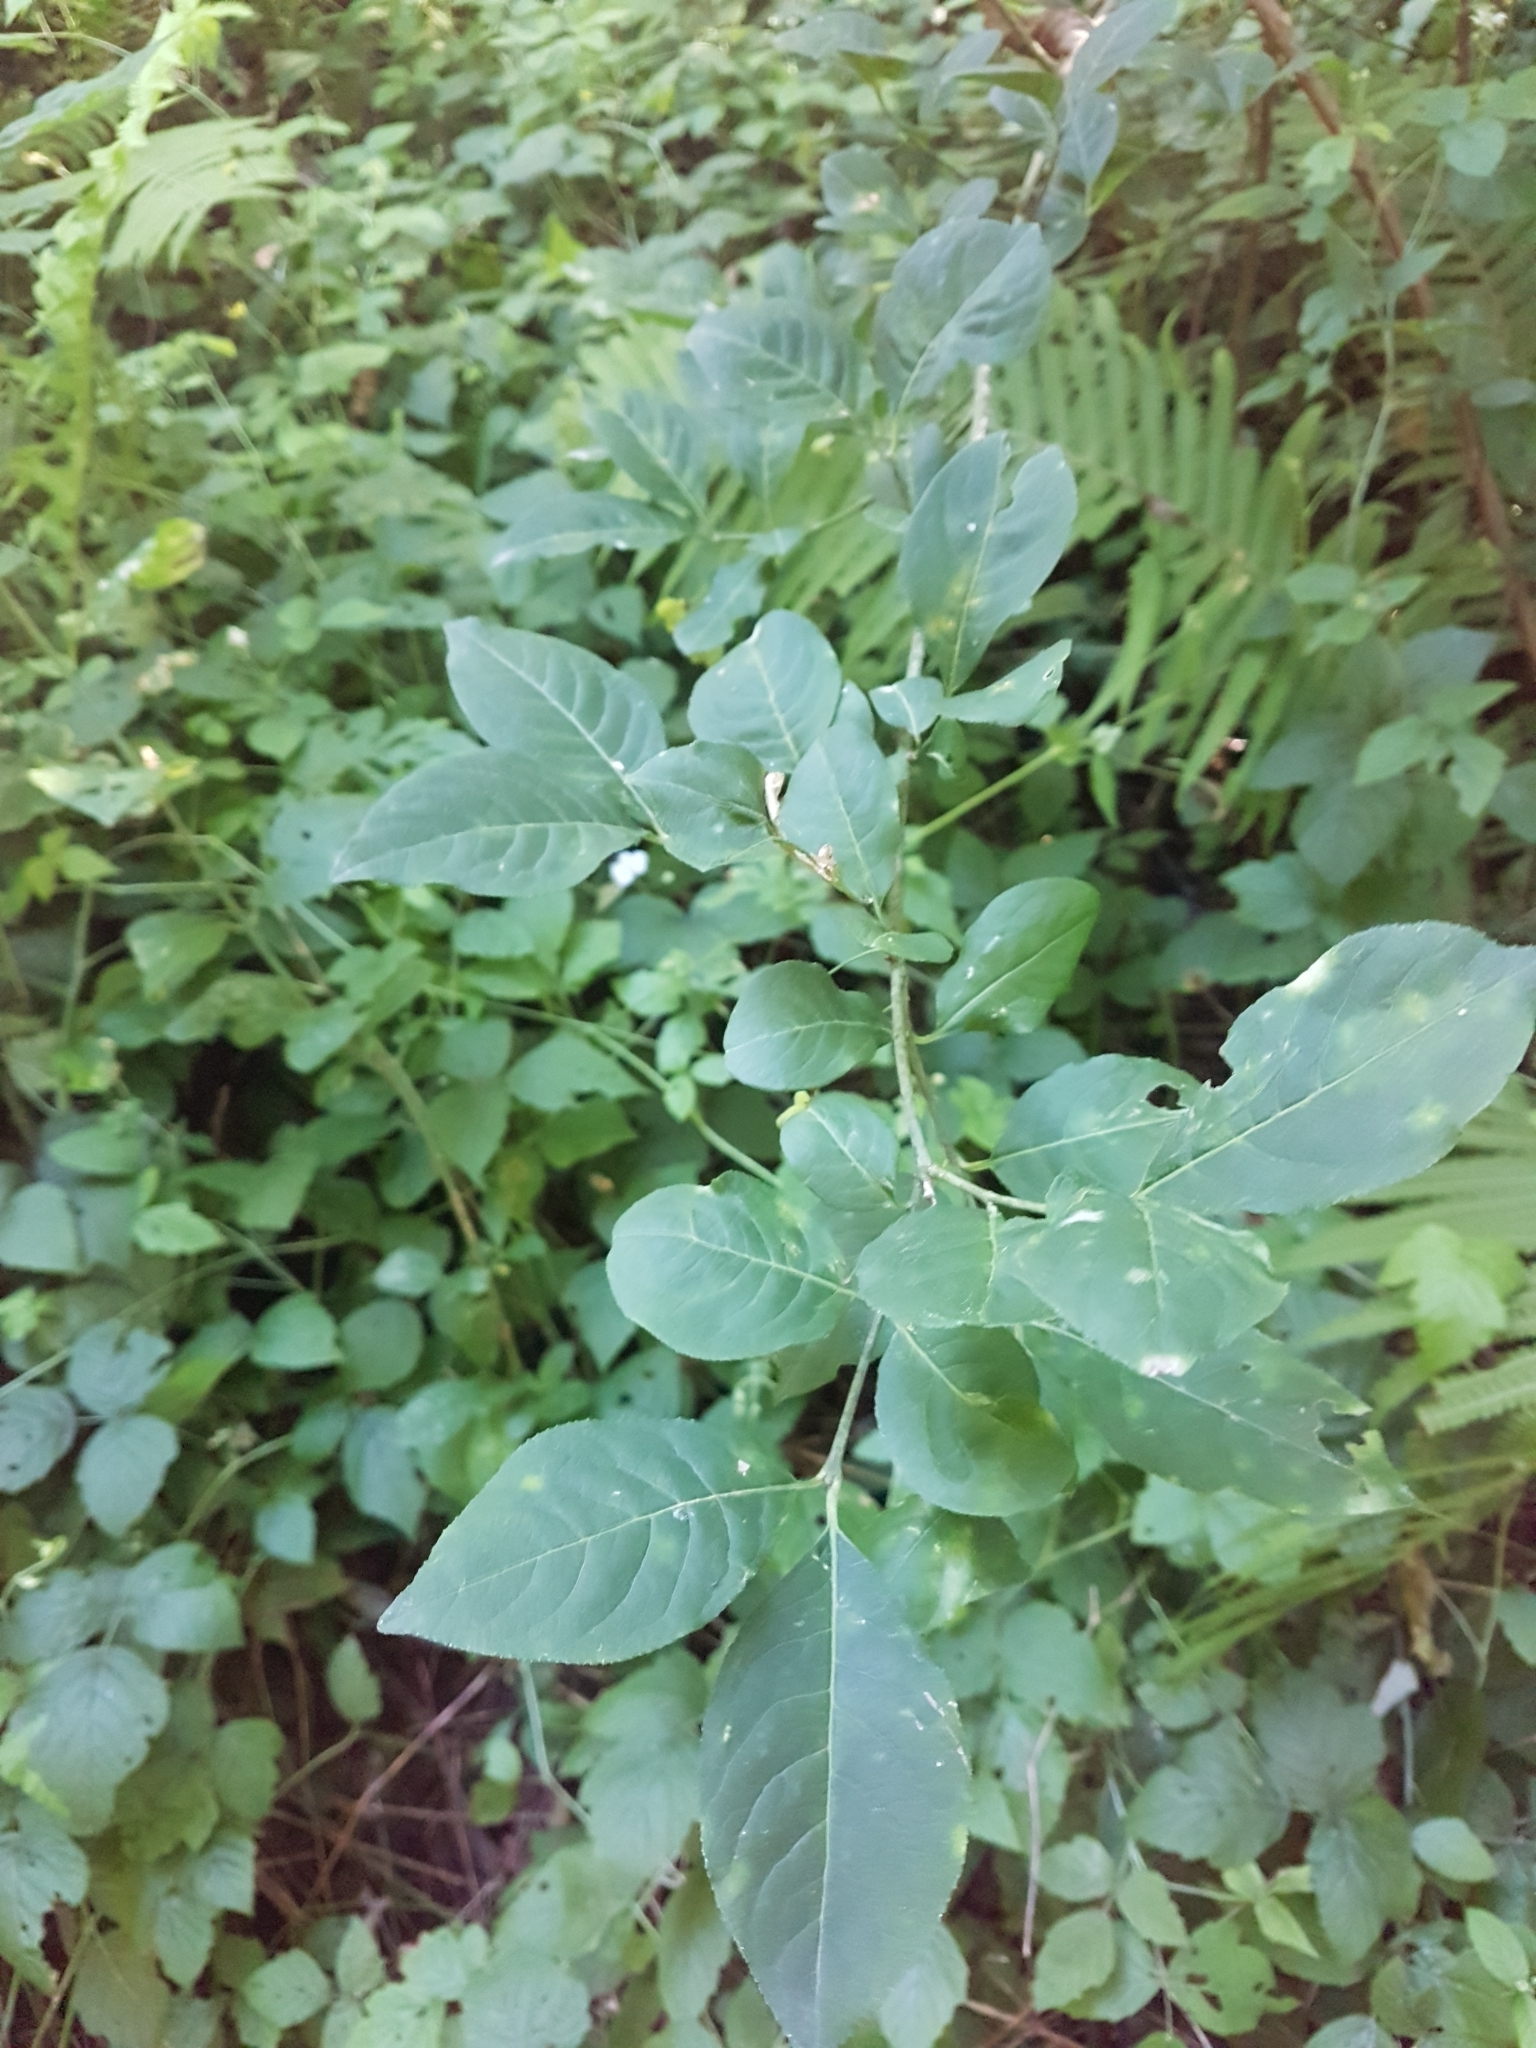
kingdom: Plantae
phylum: Tracheophyta
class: Magnoliopsida
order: Celastrales
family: Celastraceae
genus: Euonymus
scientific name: Euonymus europaeus
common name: Spindle
